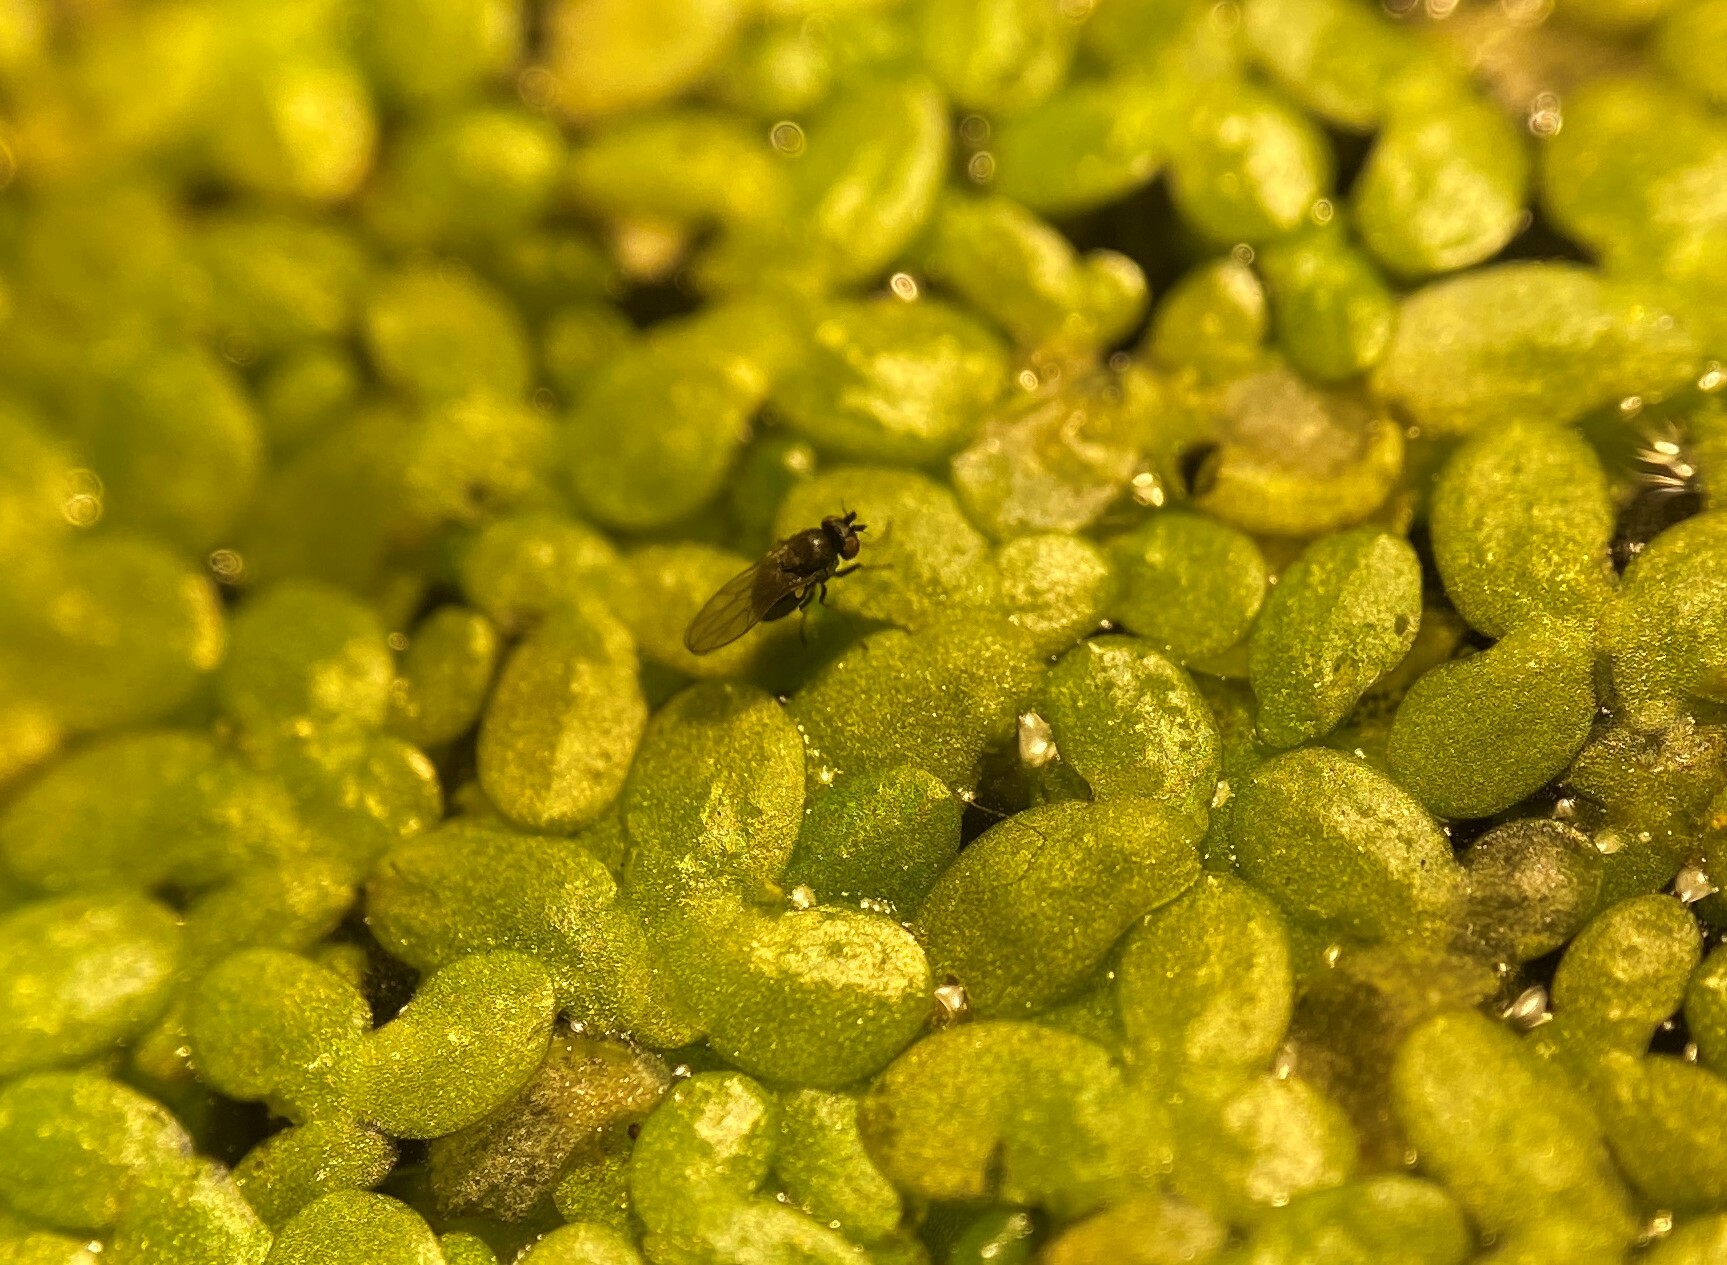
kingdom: Animalia
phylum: Arthropoda
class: Insecta
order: Diptera
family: Ephydridae
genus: Lemnaphila
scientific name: Lemnaphila scotlandae
